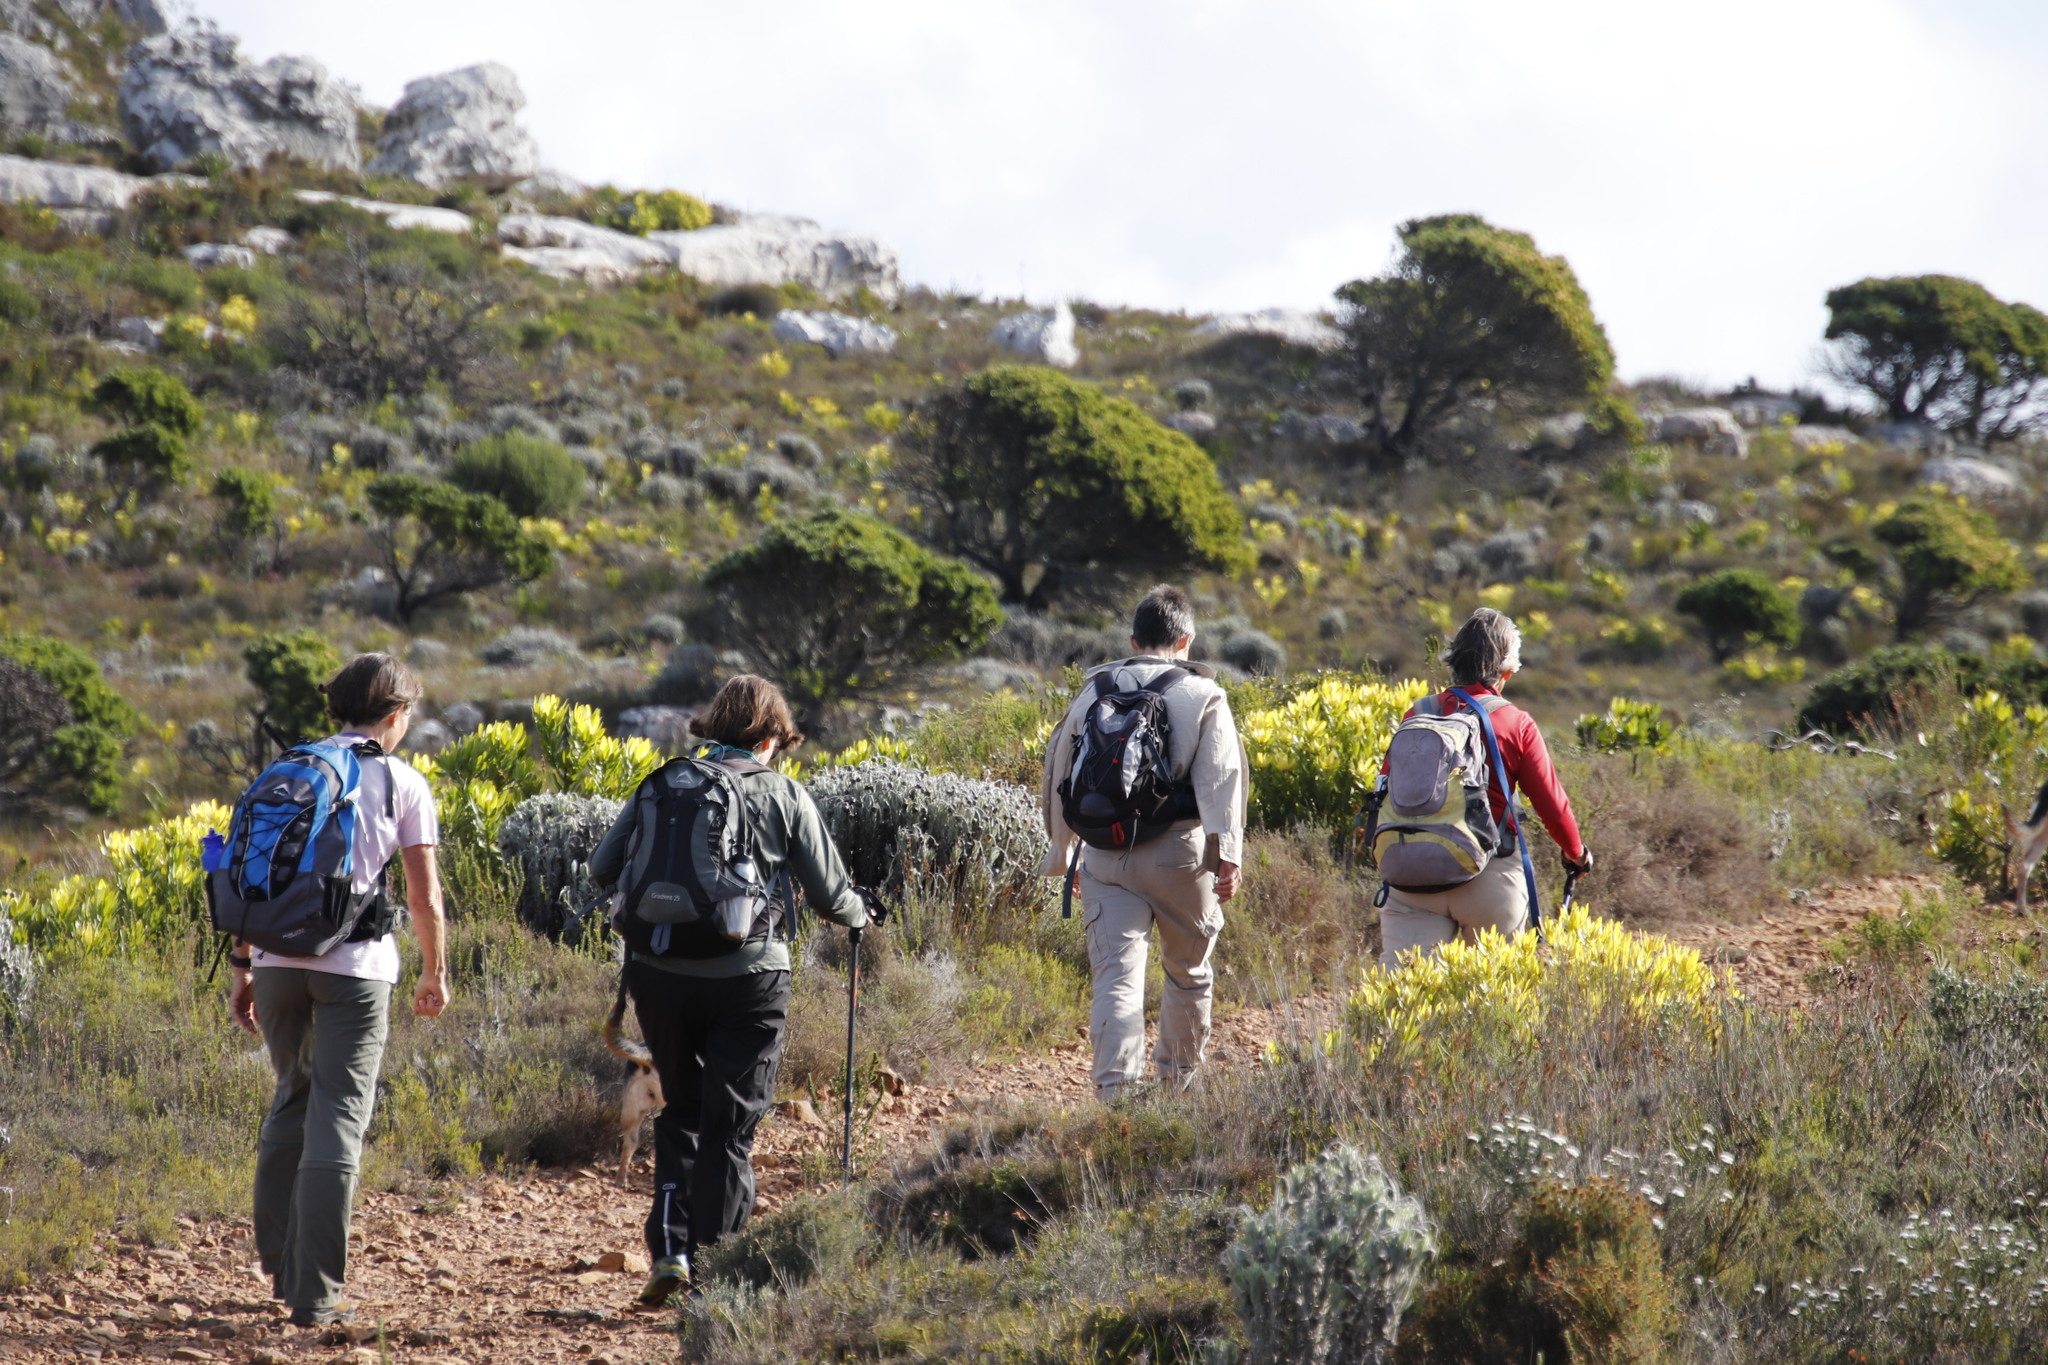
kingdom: Plantae
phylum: Tracheophyta
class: Magnoliopsida
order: Proteales
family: Proteaceae
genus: Mimetes
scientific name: Mimetes fimbriifolius
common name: Fringed bottlebrush
